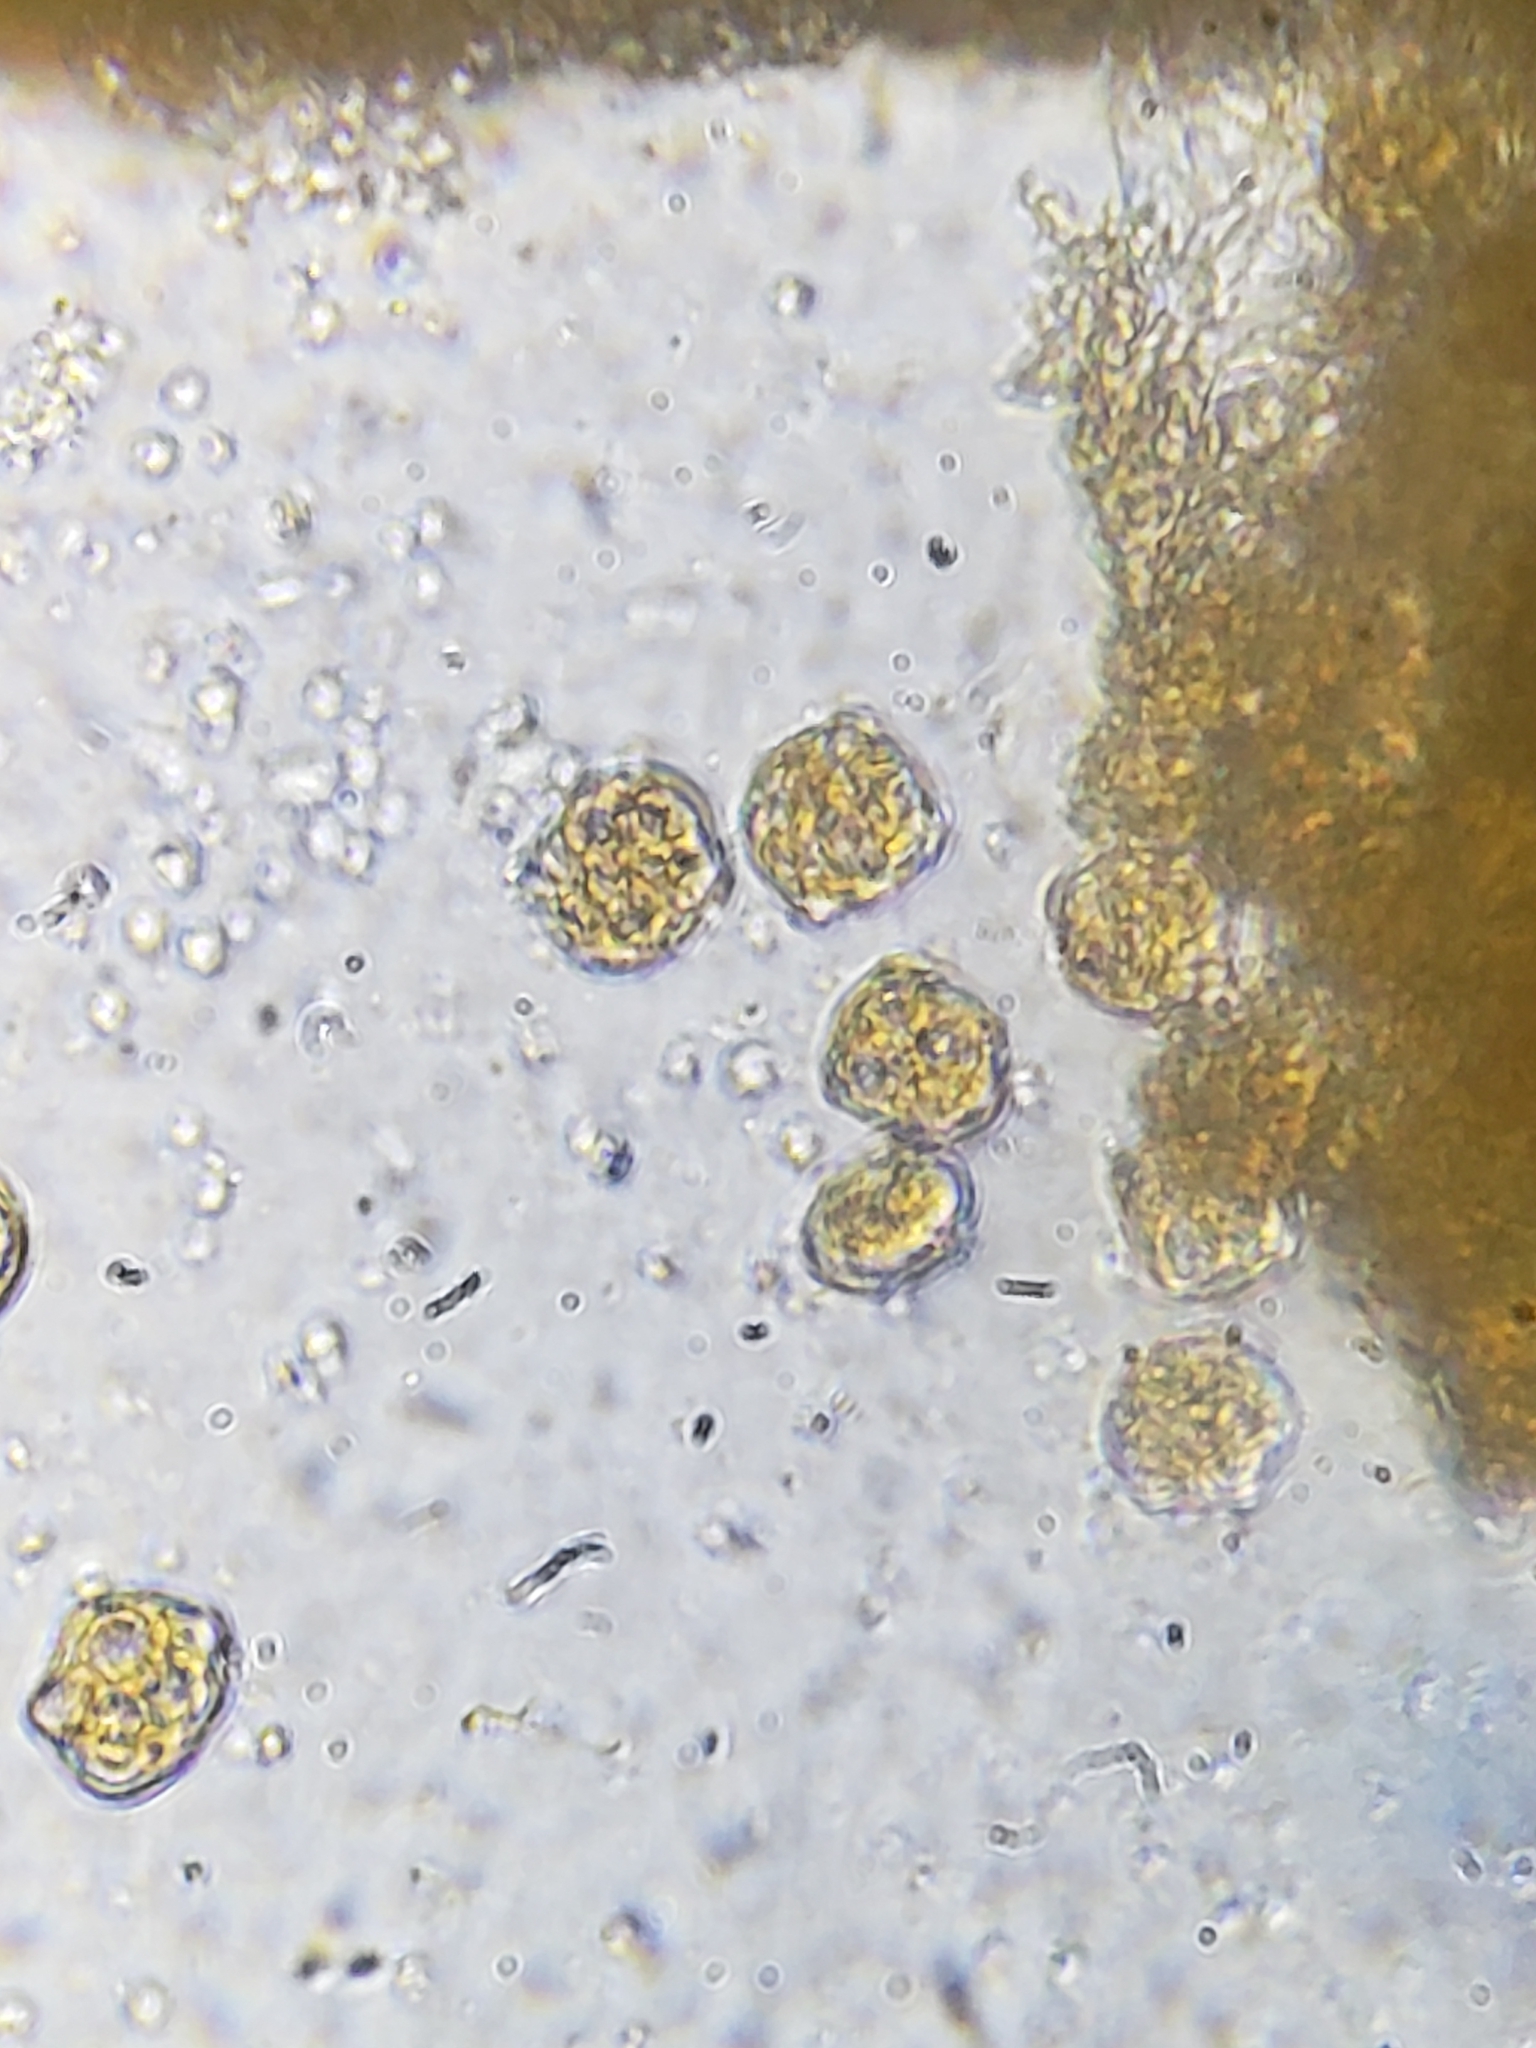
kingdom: Fungi
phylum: Basidiomycota
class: Pucciniomycetes
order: Pucciniales
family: Phragmidiaceae
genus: Phragmidium
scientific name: Phragmidium rosae-multiflorae
